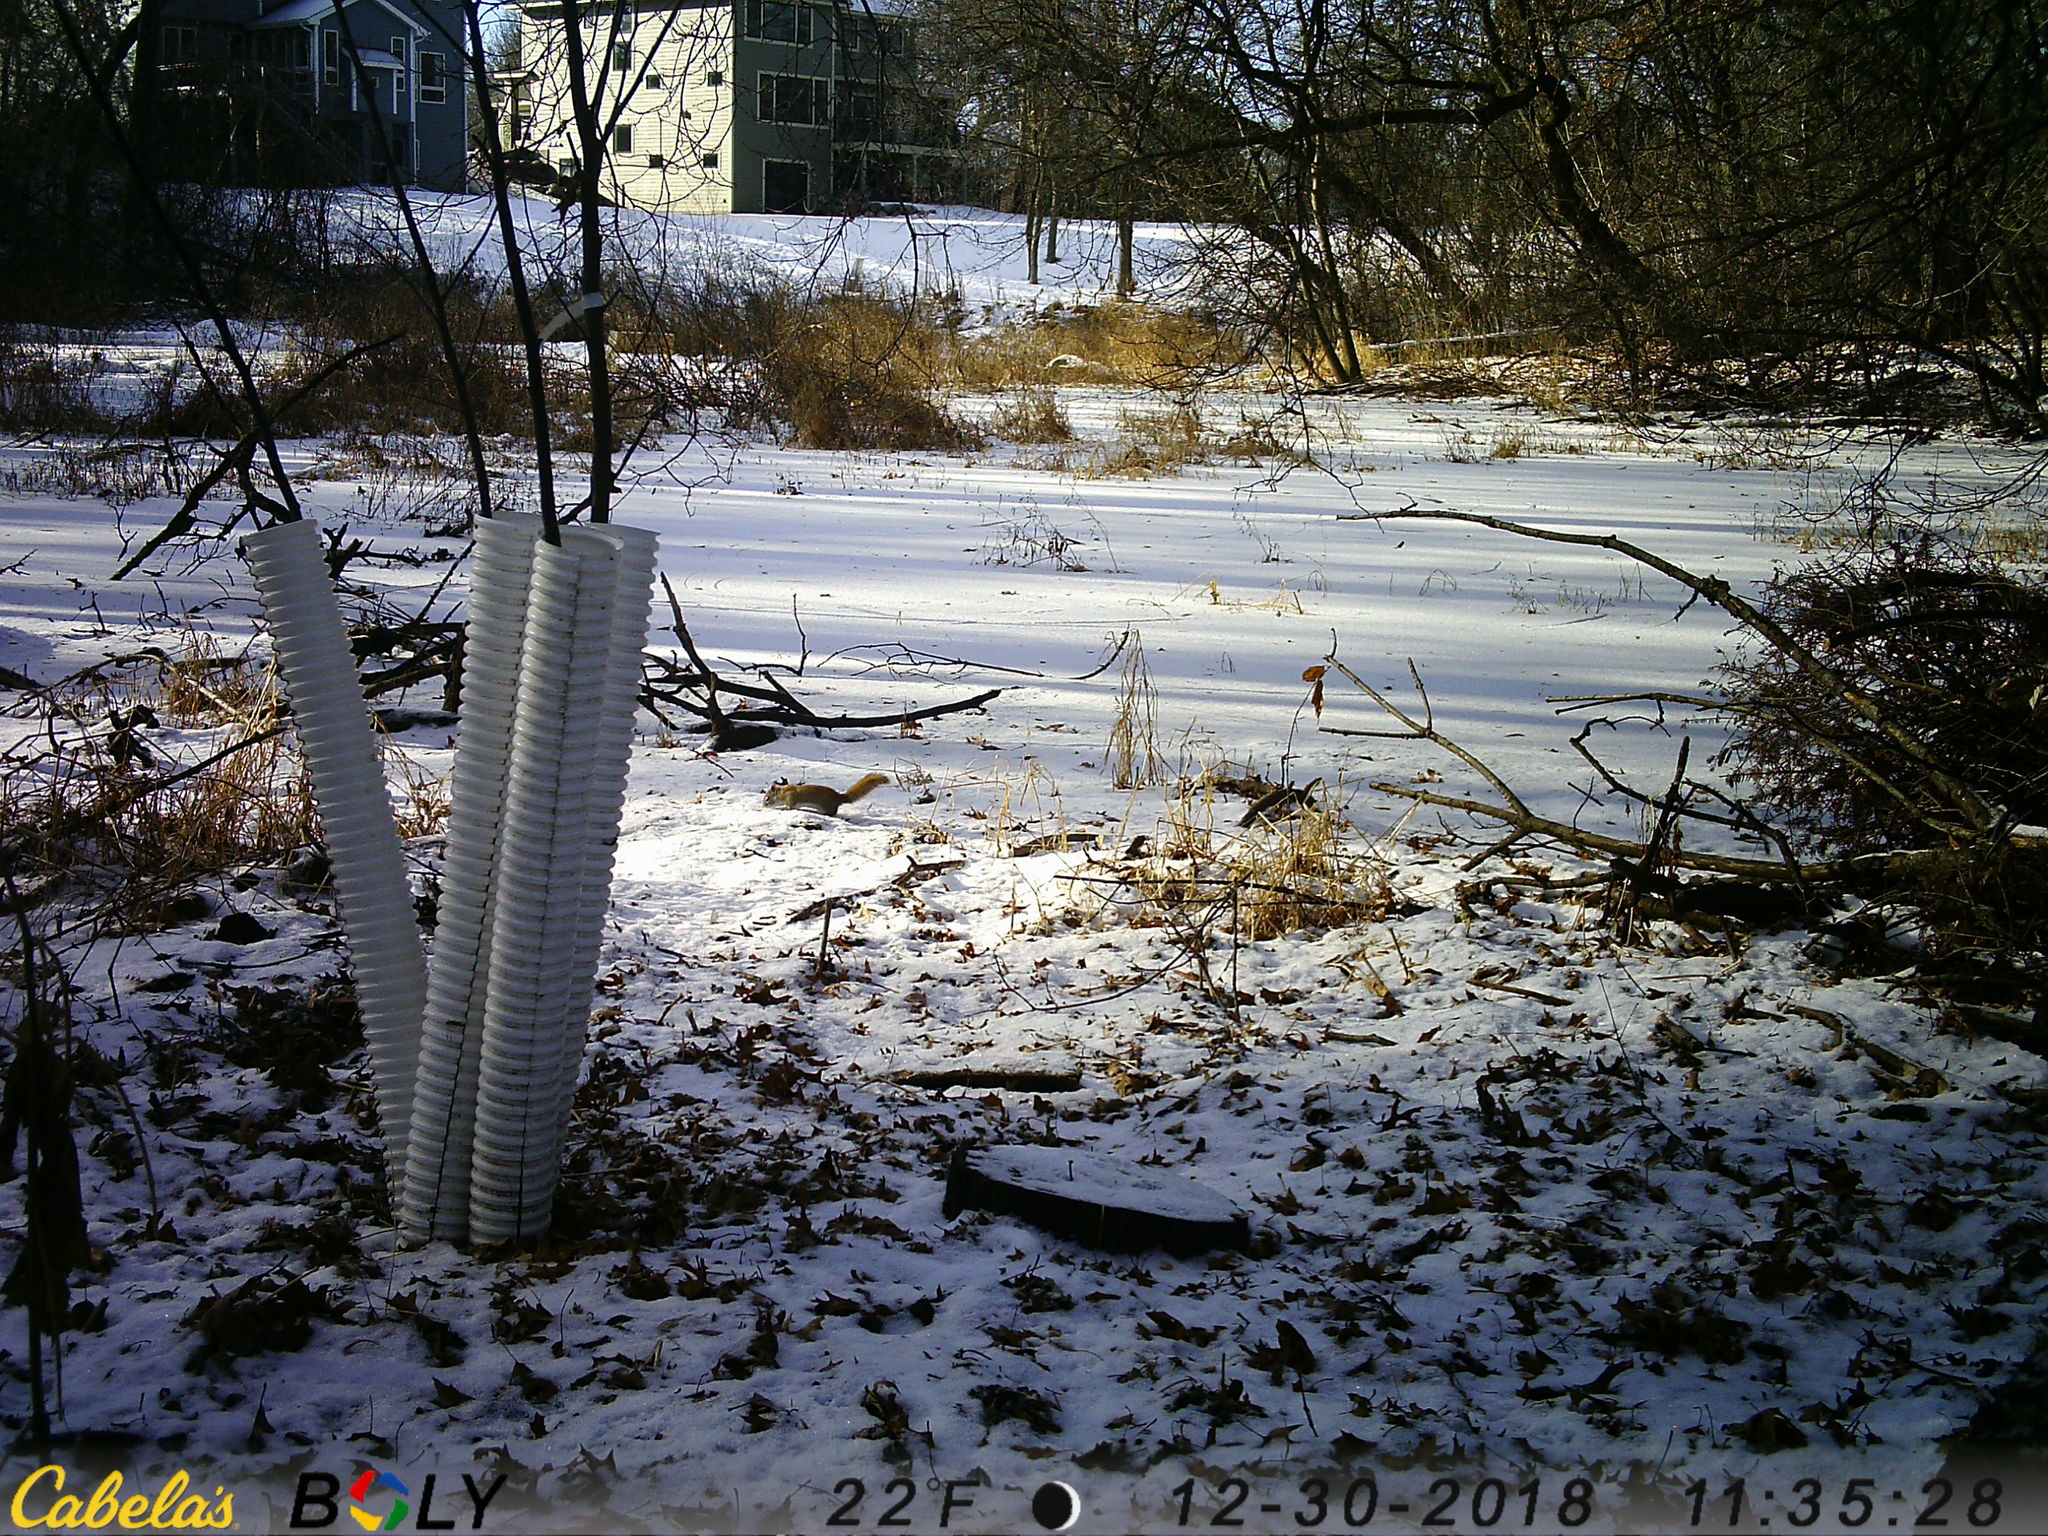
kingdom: Animalia
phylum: Chordata
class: Mammalia
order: Rodentia
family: Sciuridae
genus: Tamiasciurus
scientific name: Tamiasciurus hudsonicus
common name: Red squirrel
